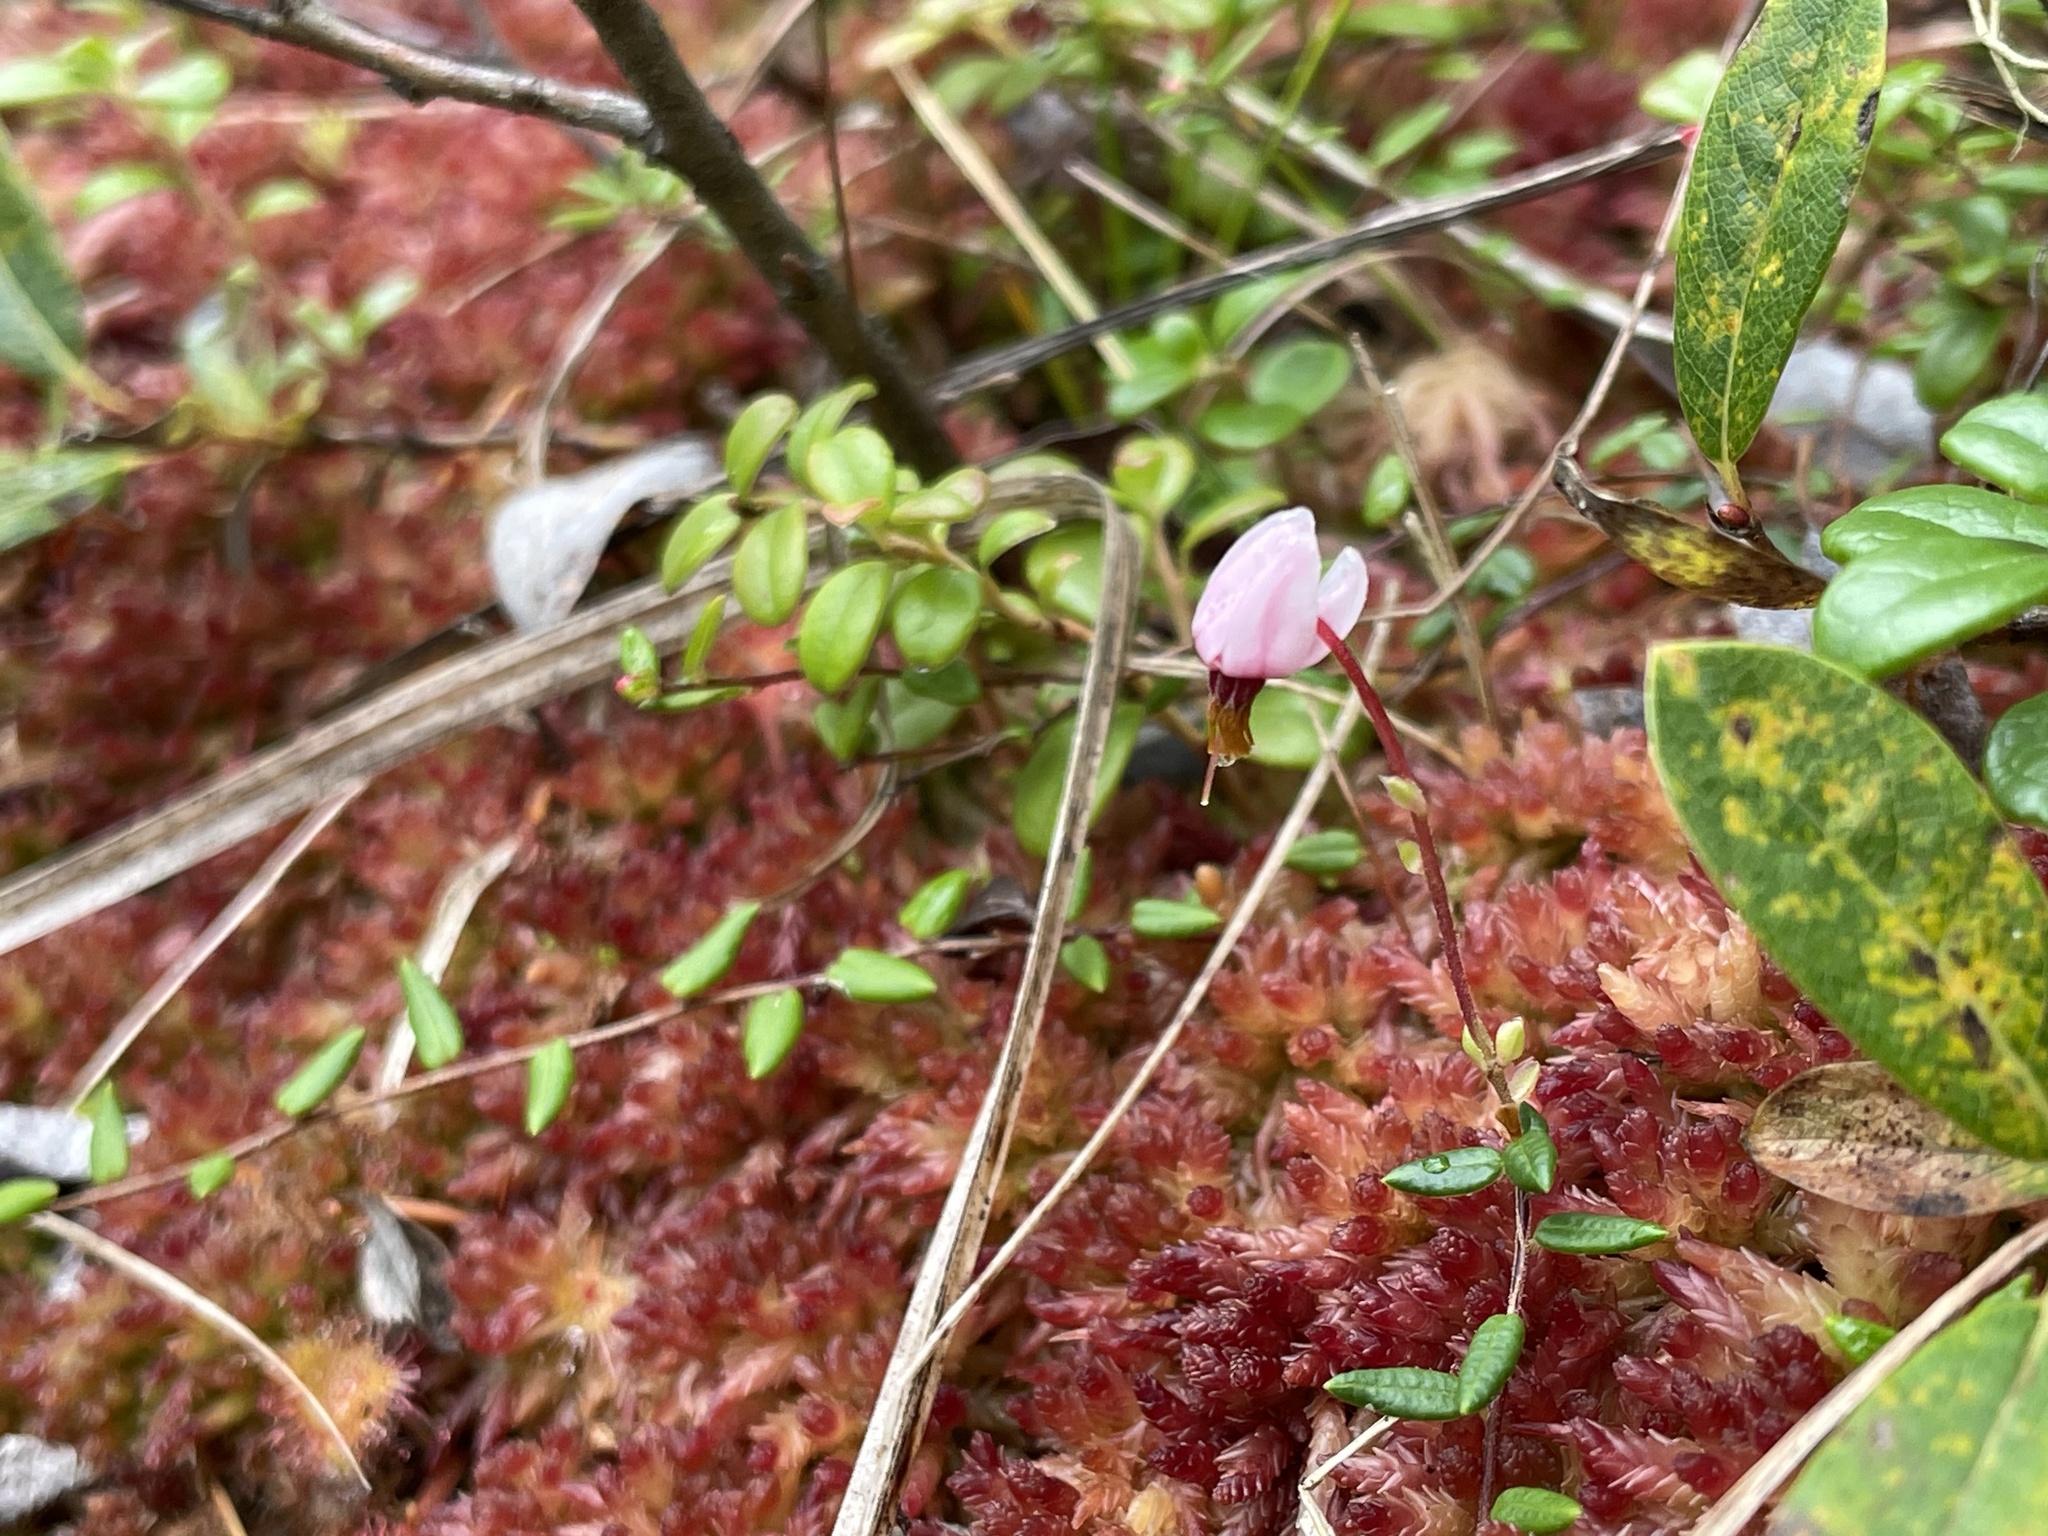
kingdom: Plantae
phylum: Tracheophyta
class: Magnoliopsida
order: Ericales
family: Ericaceae
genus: Vaccinium
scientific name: Vaccinium oxycoccos
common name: Cranberry
